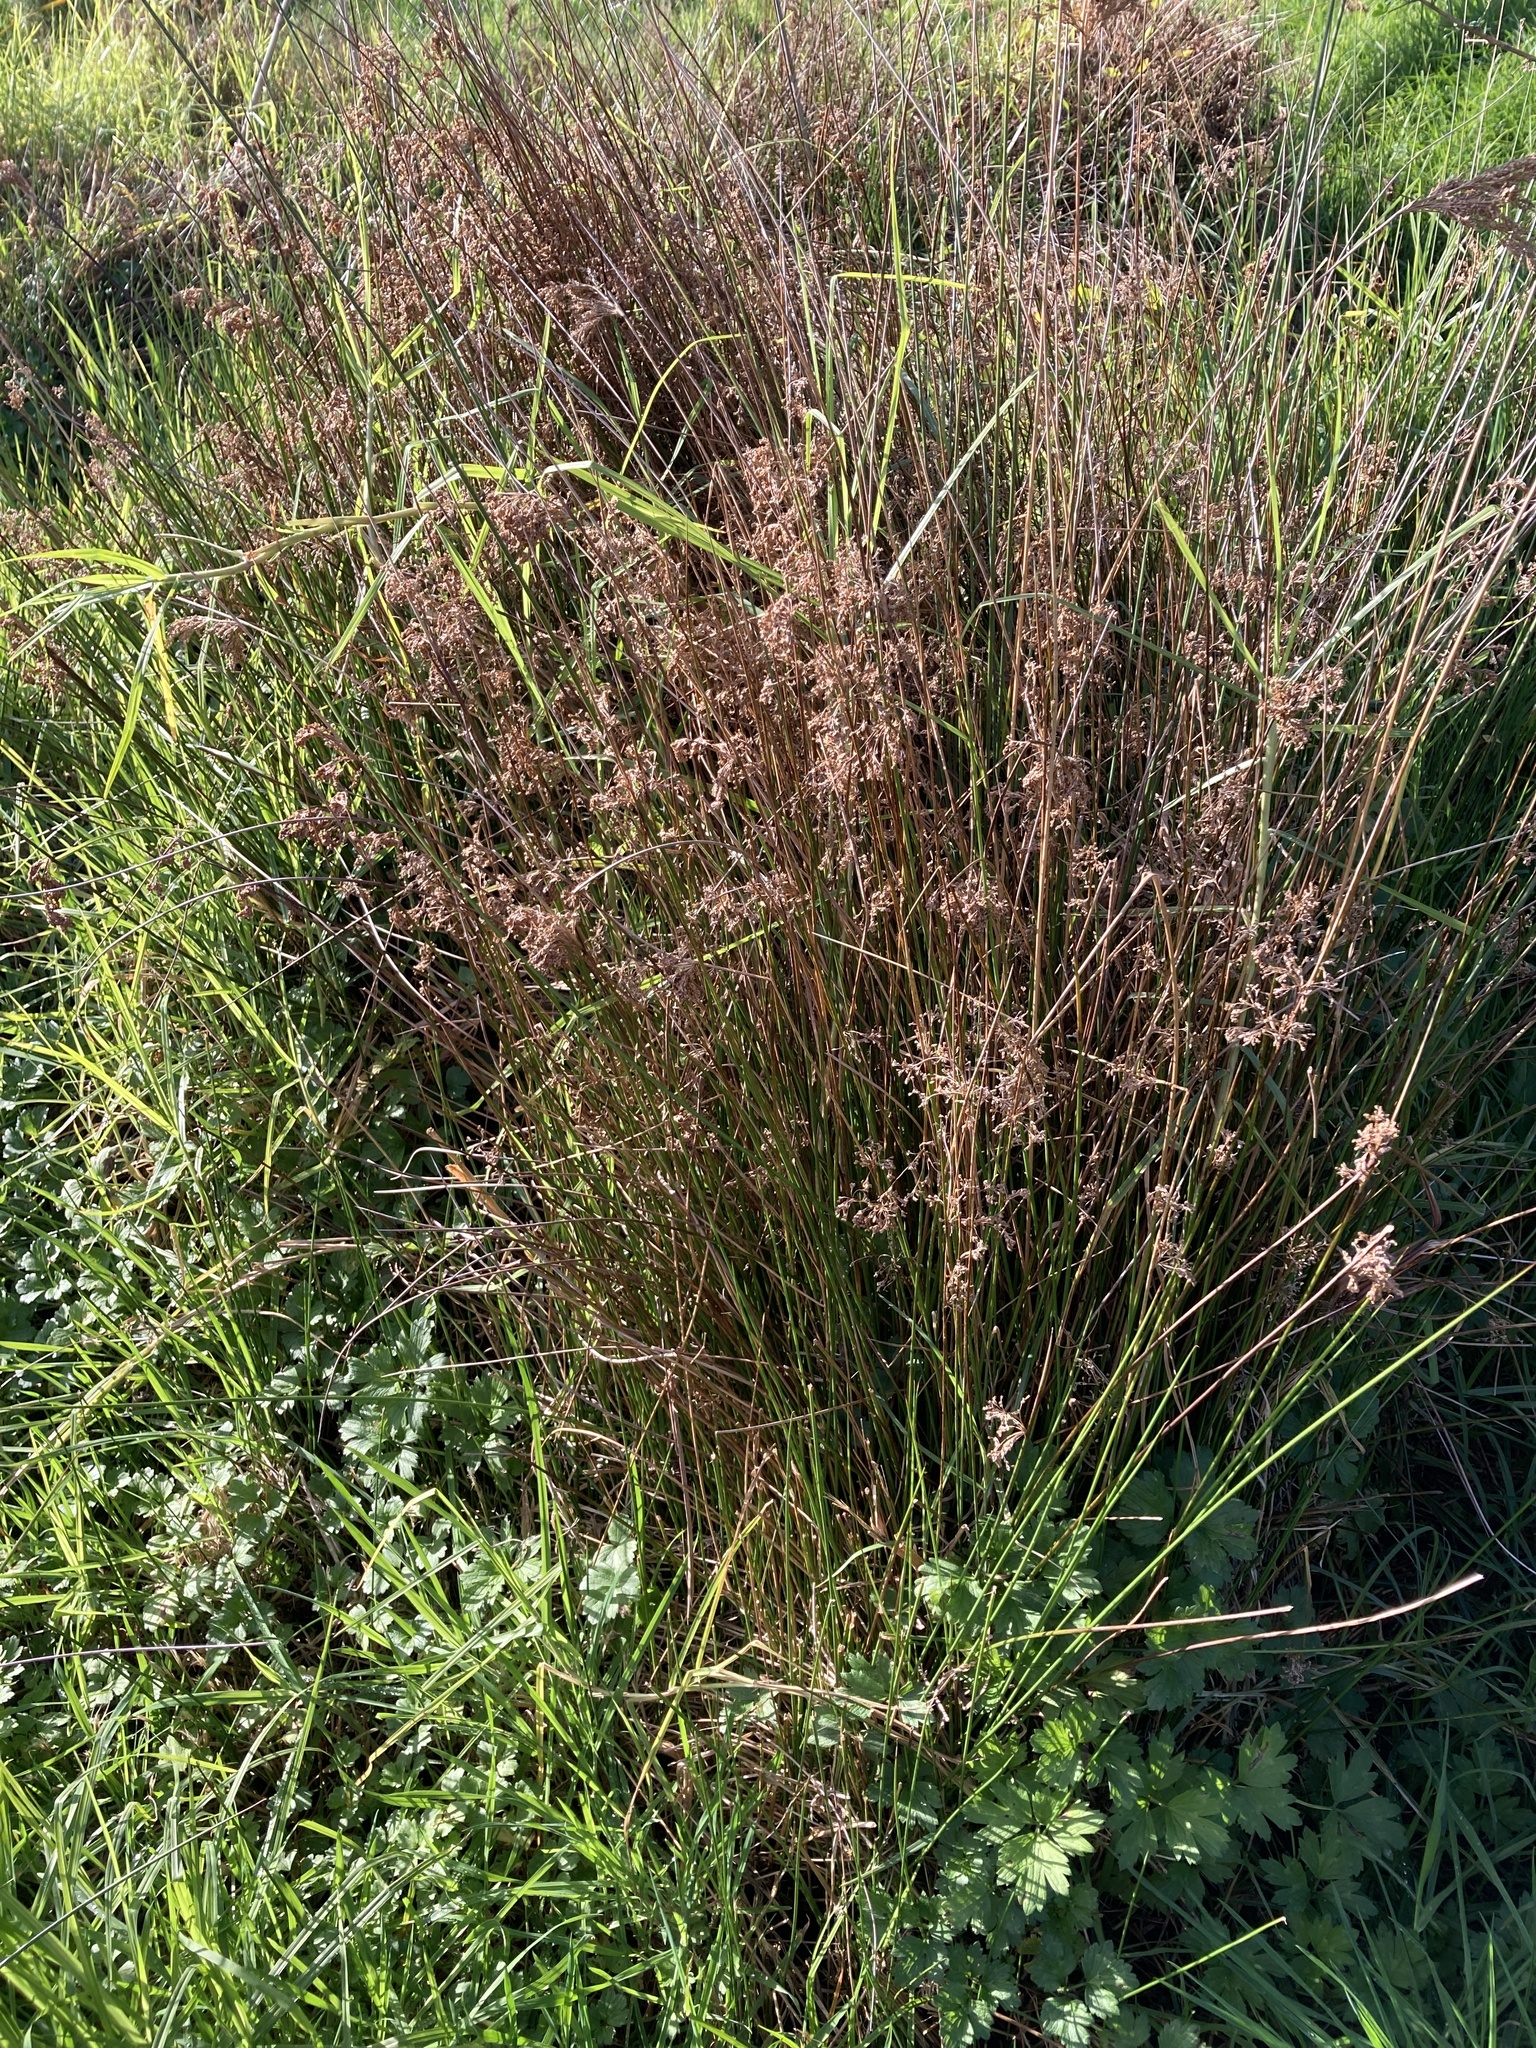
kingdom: Plantae
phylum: Tracheophyta
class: Liliopsida
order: Poales
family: Juncaceae
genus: Juncus
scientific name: Juncus sarophorus
